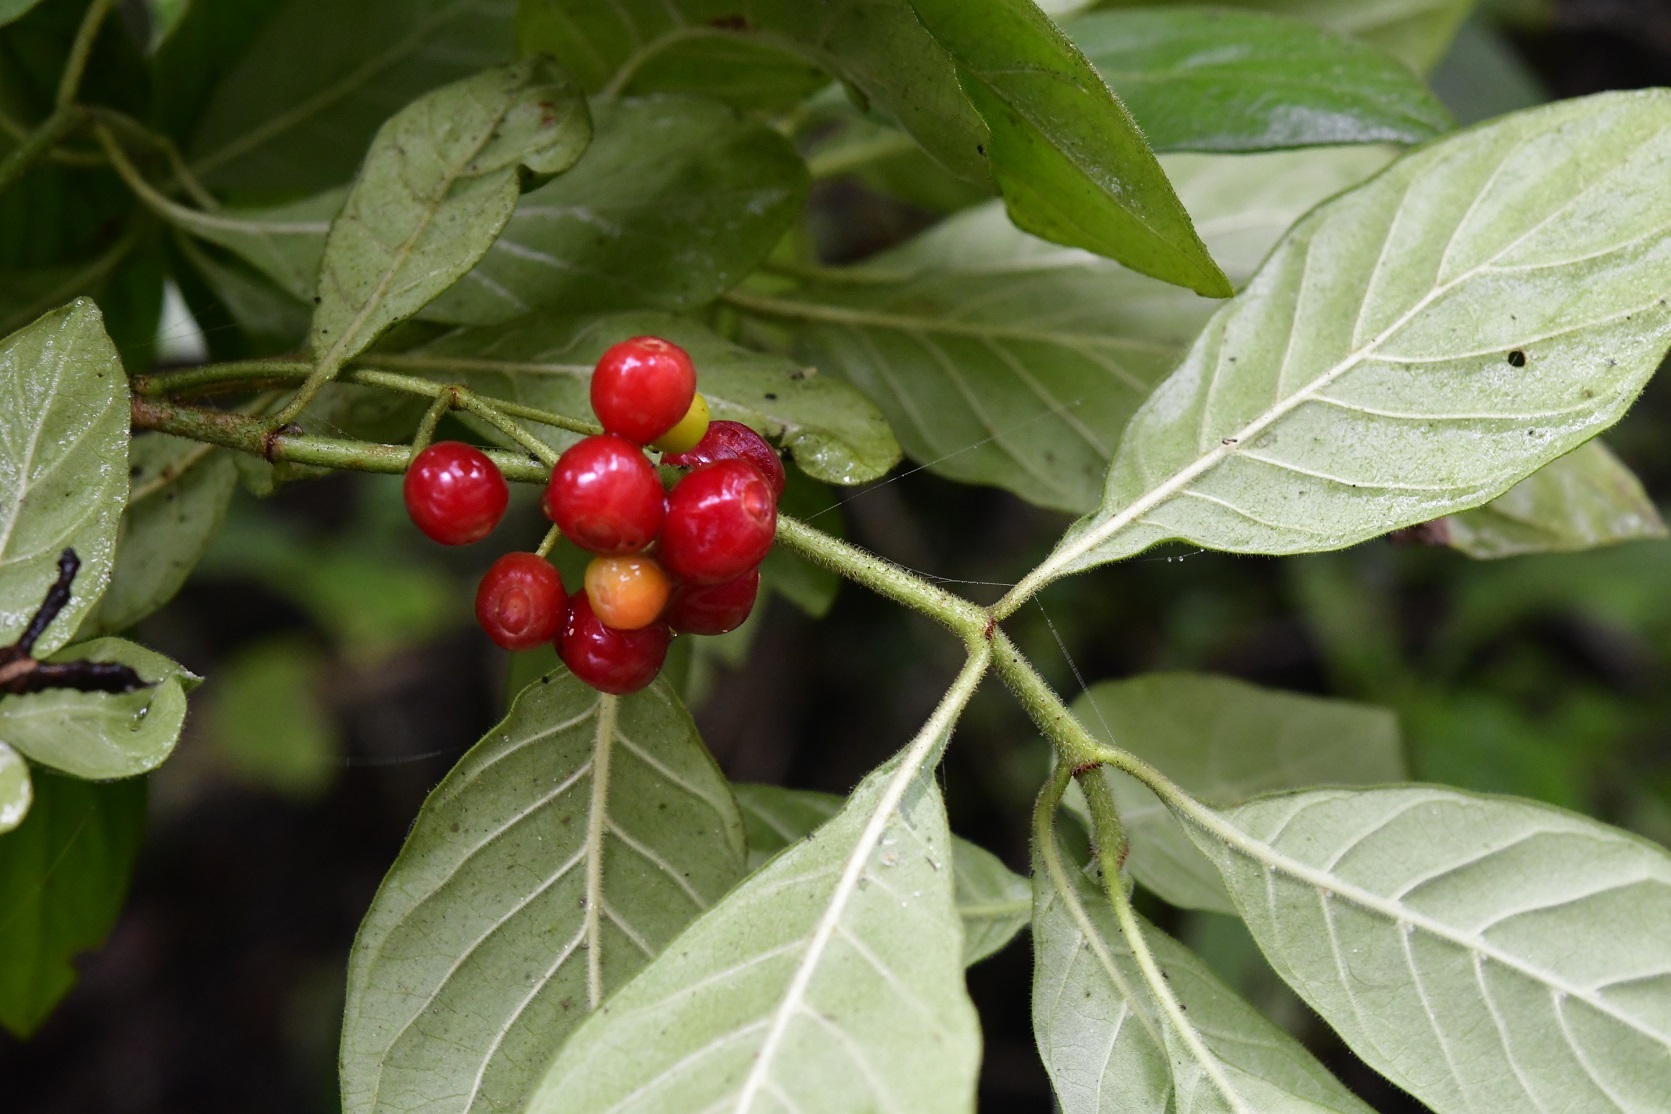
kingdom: Plantae
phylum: Tracheophyta
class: Magnoliopsida
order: Gentianales
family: Rubiaceae
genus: Psychotria
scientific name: Psychotria erythrocarpa
